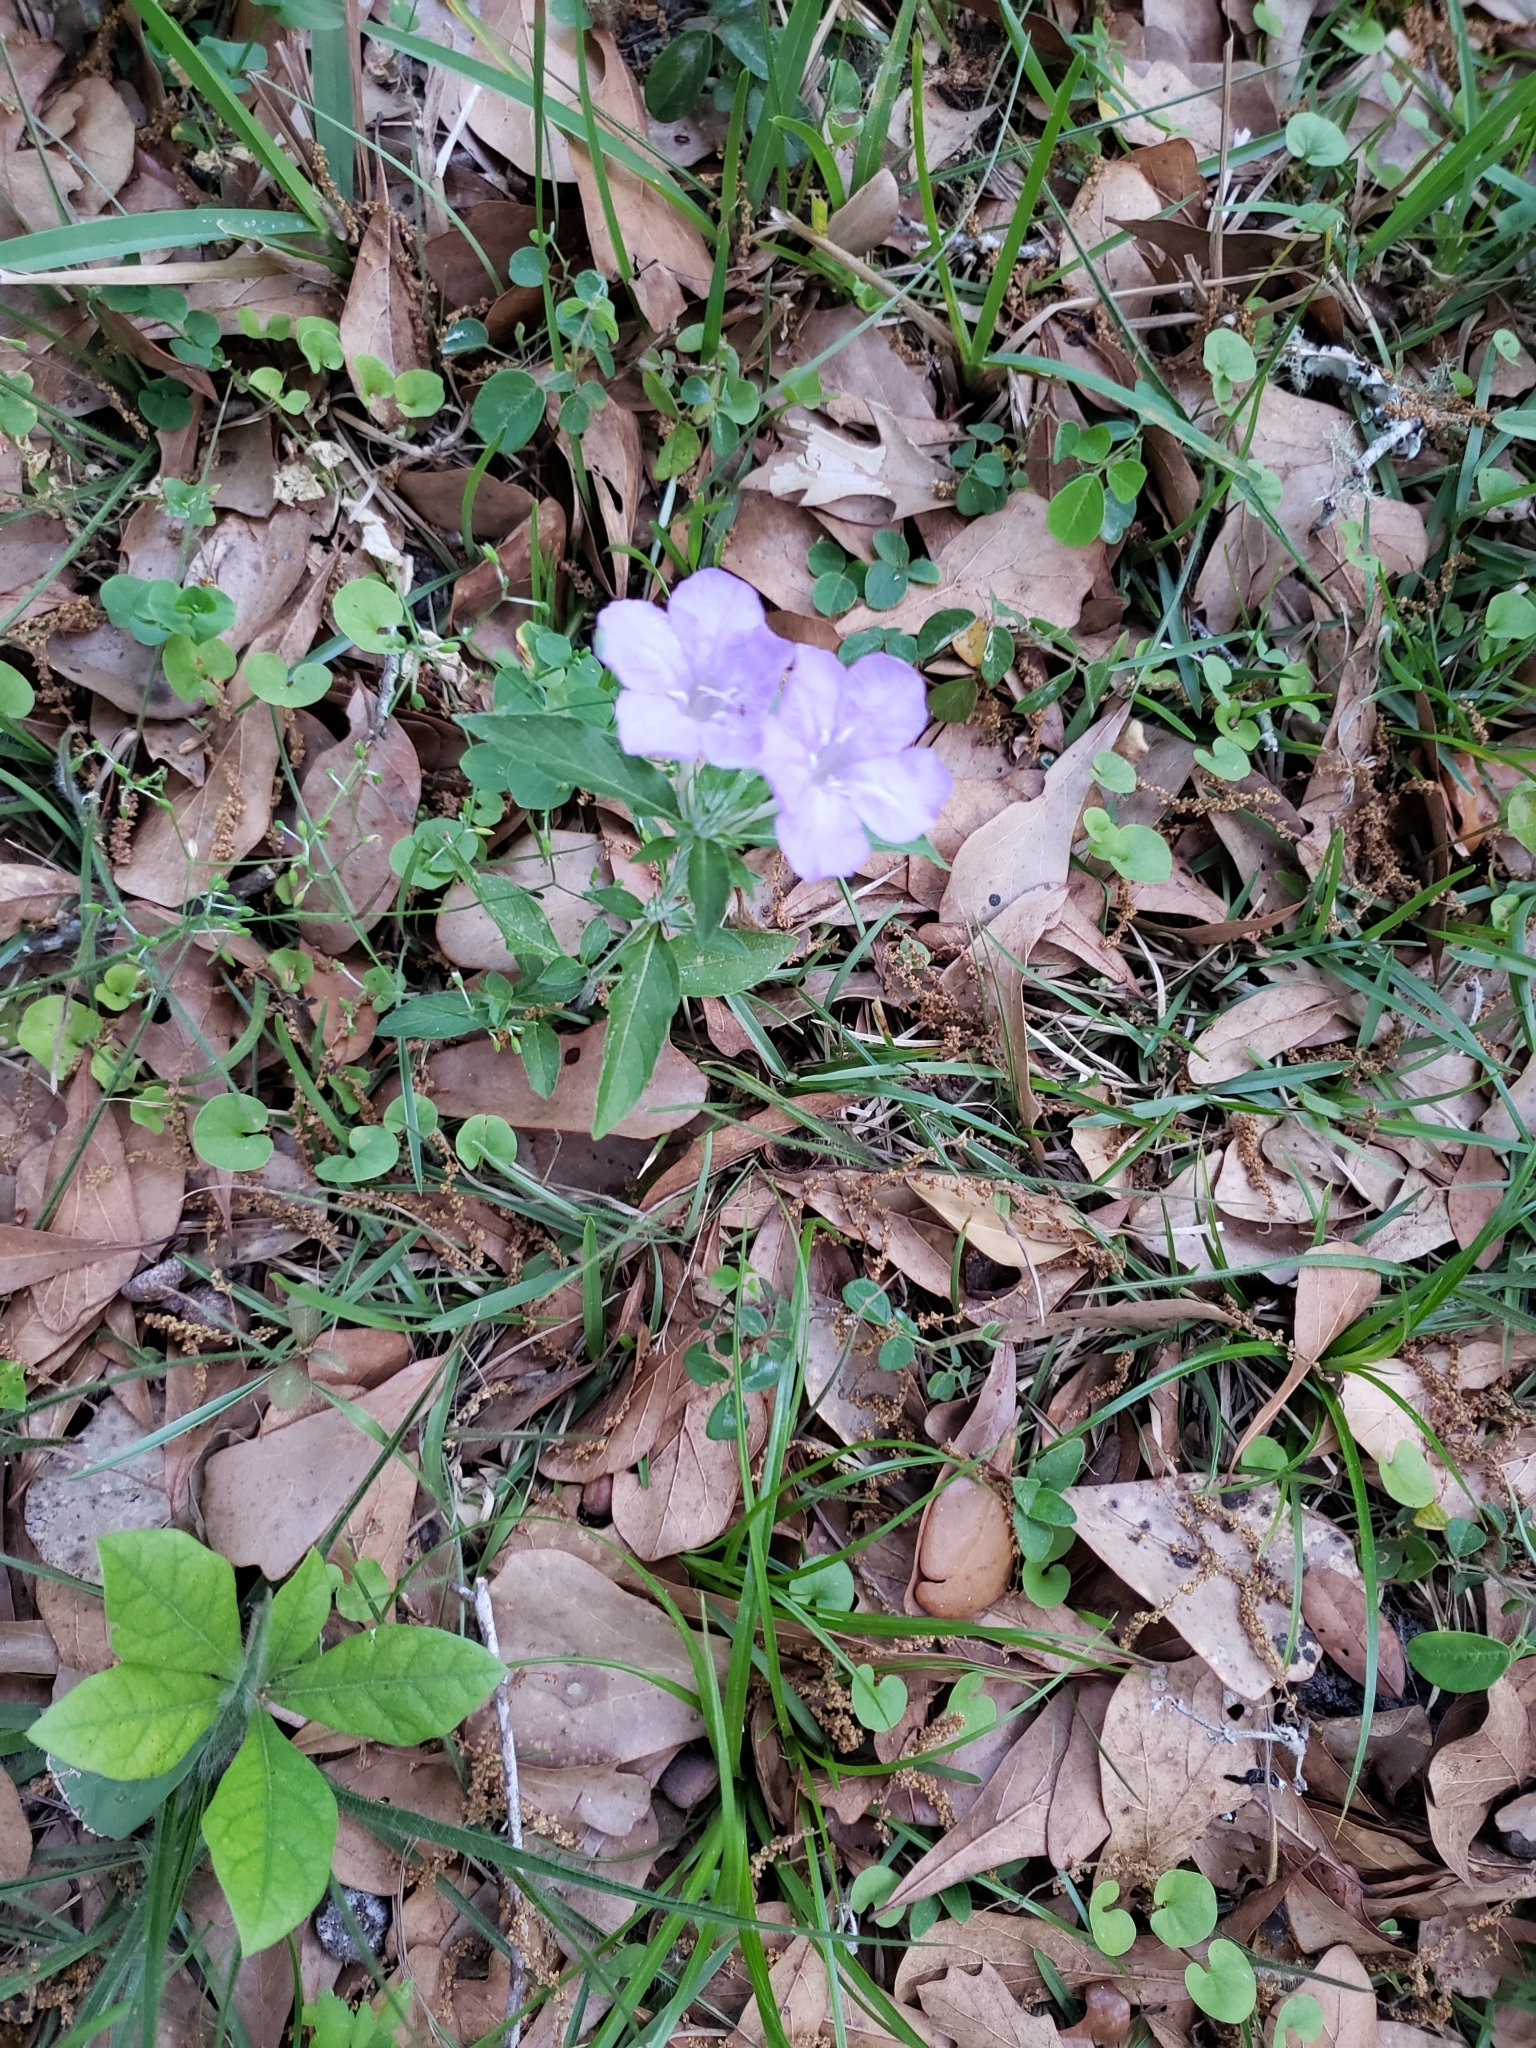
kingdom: Plantae
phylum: Tracheophyta
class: Magnoliopsida
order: Lamiales
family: Acanthaceae
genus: Ruellia
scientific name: Ruellia caroliniensis
